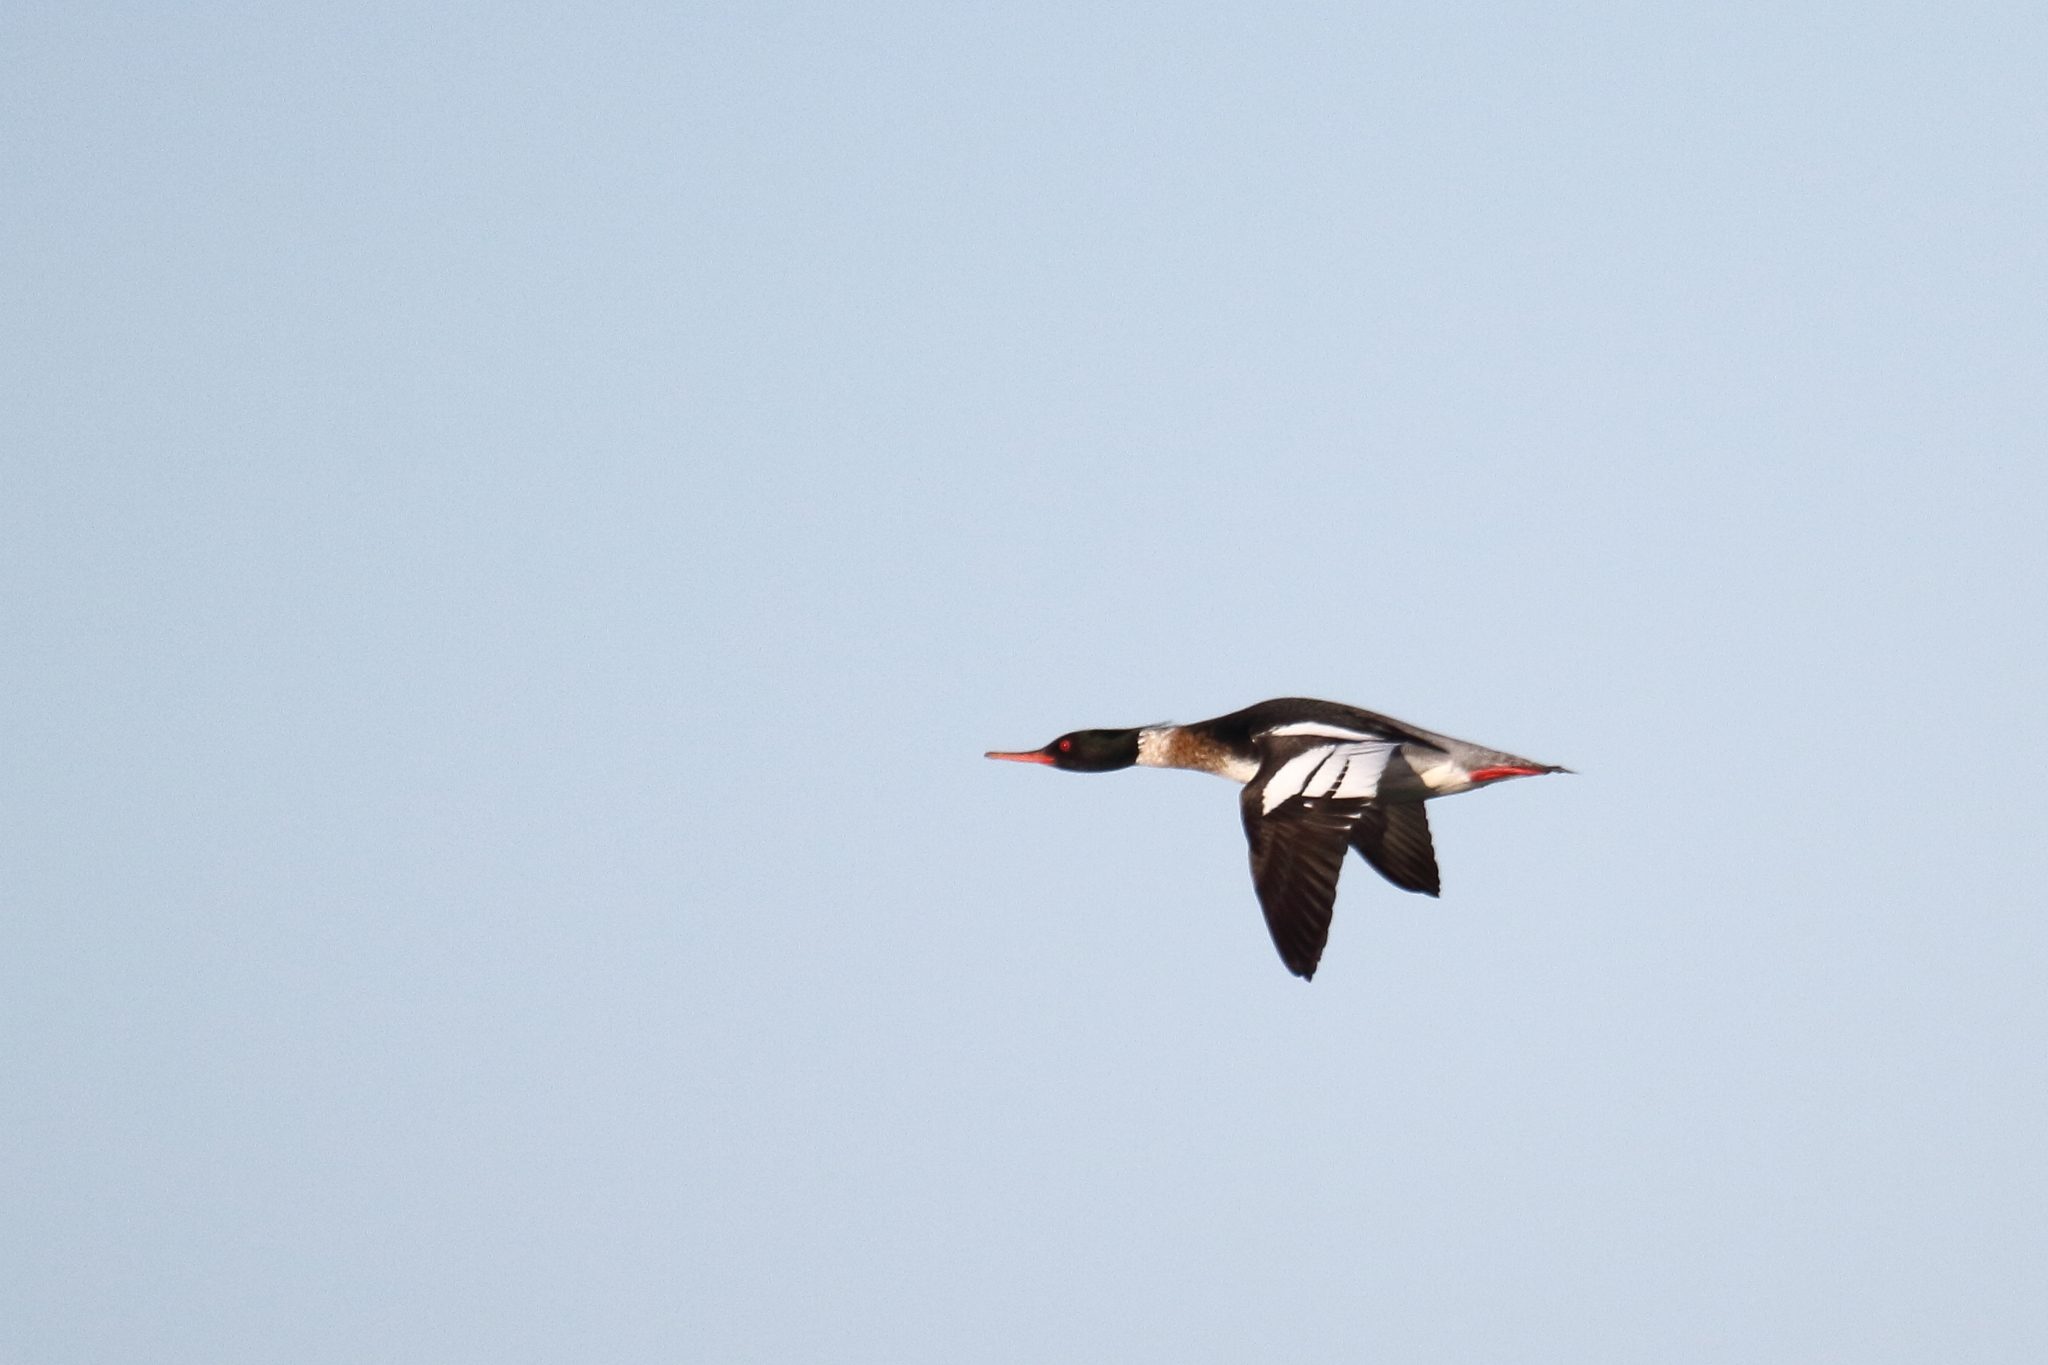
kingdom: Animalia
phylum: Chordata
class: Aves
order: Anseriformes
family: Anatidae
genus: Mergus
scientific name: Mergus serrator
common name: Red-breasted merganser
